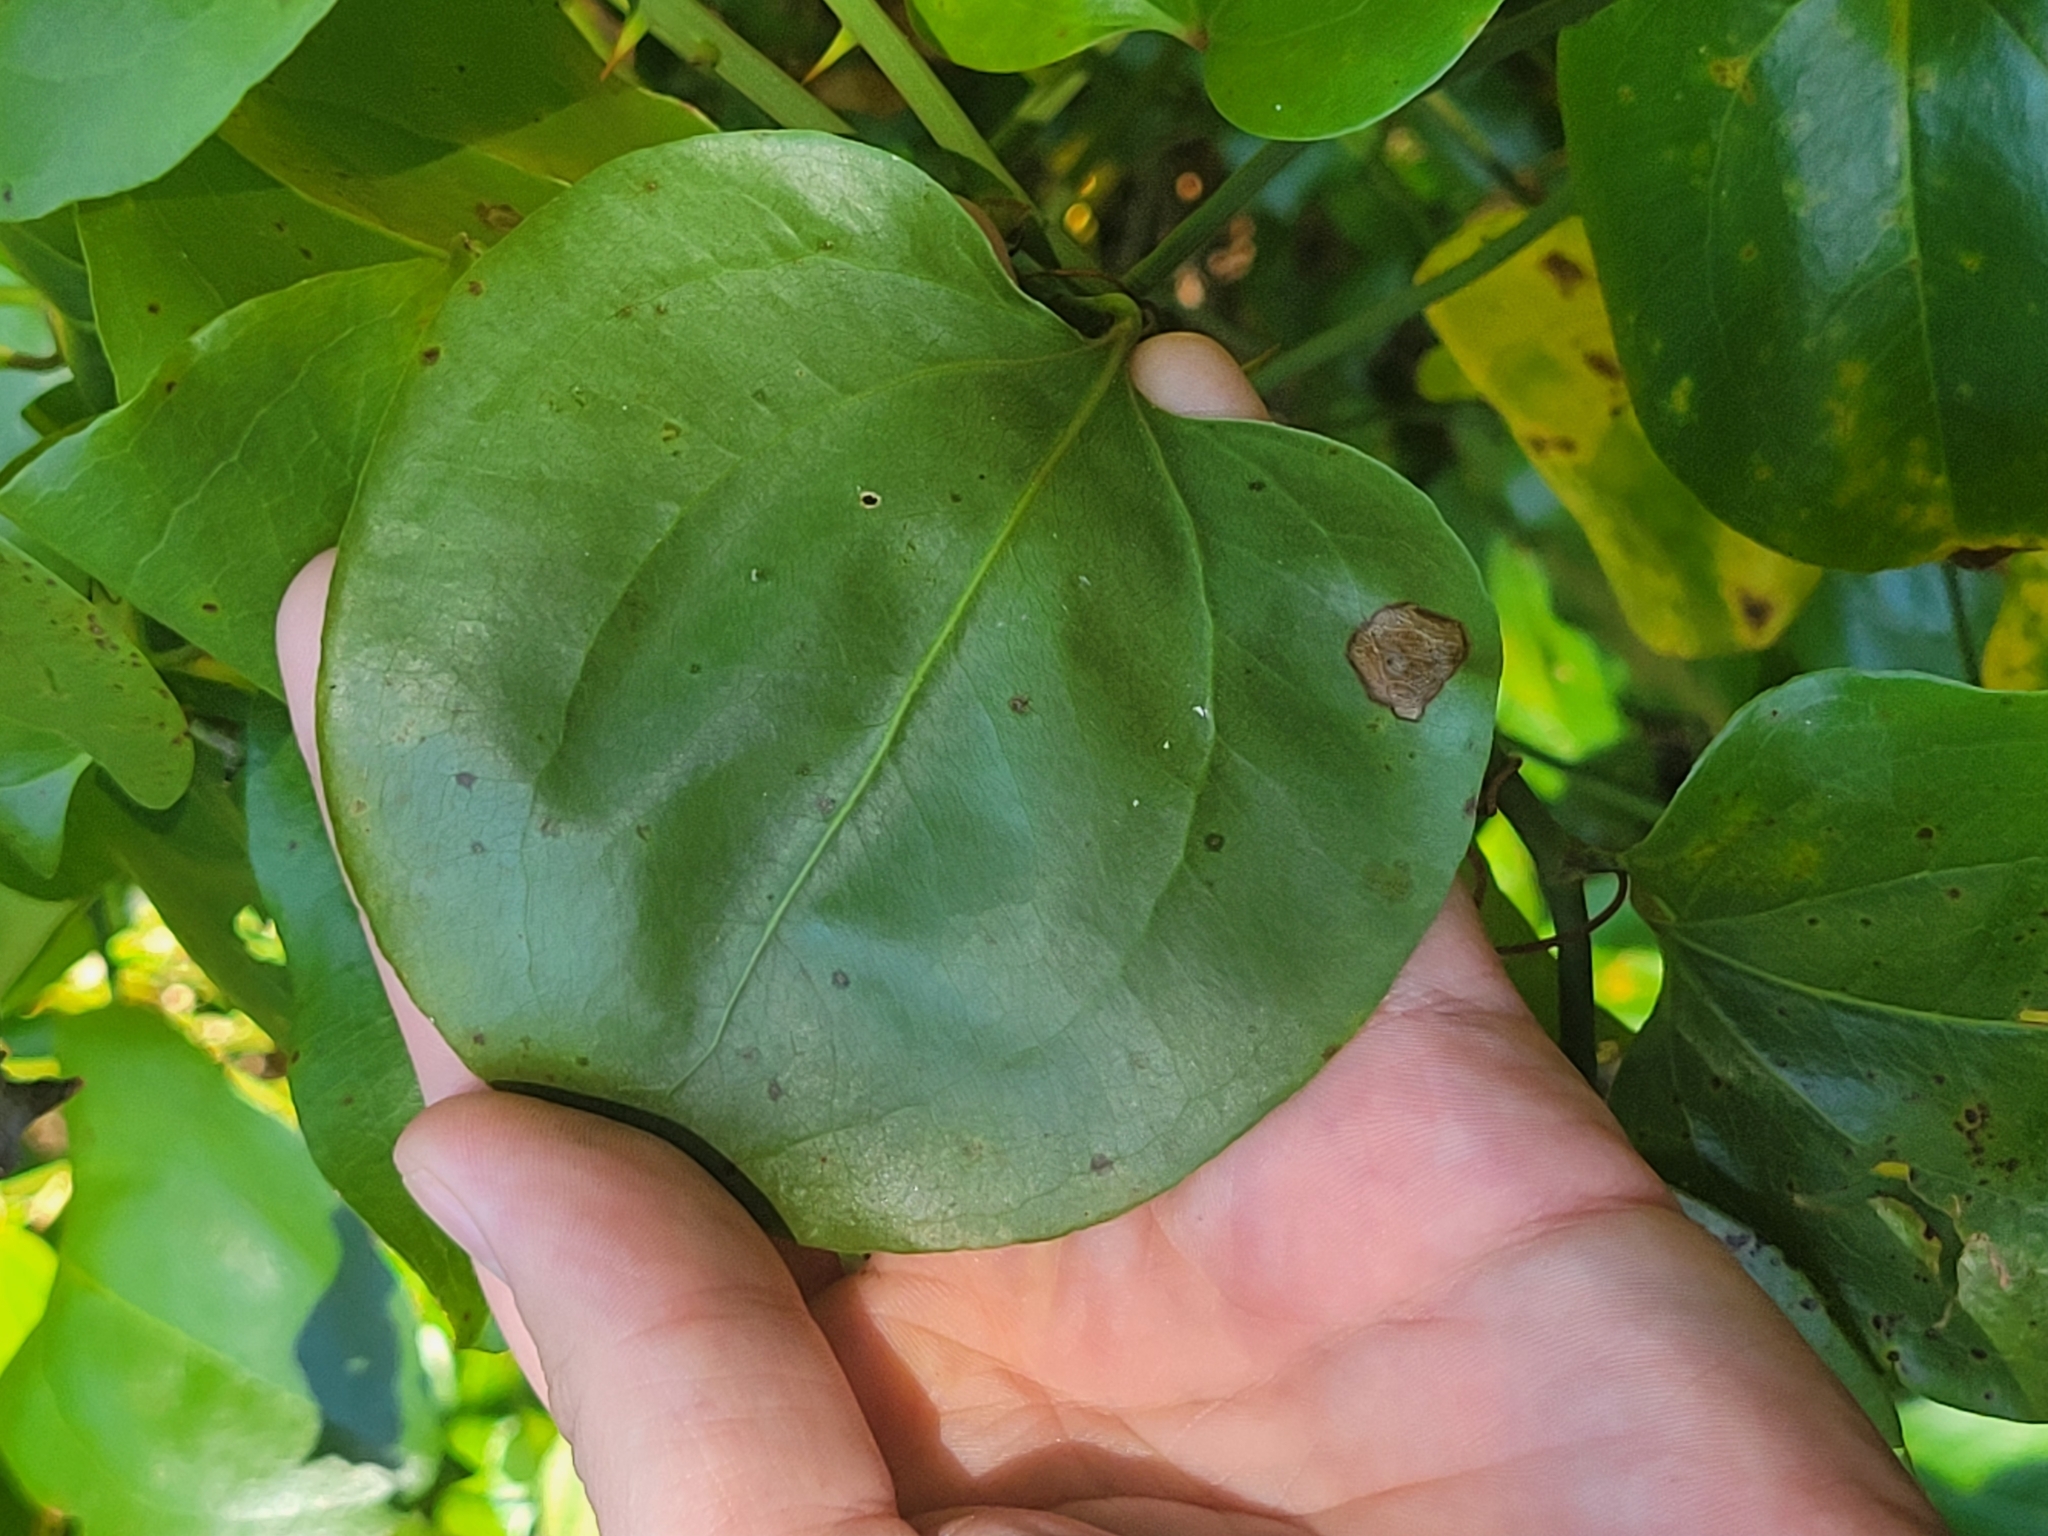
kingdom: Plantae
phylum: Tracheophyta
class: Liliopsida
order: Liliales
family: Smilacaceae
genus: Smilax
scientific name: Smilax rotundifolia
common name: Bullbriar
